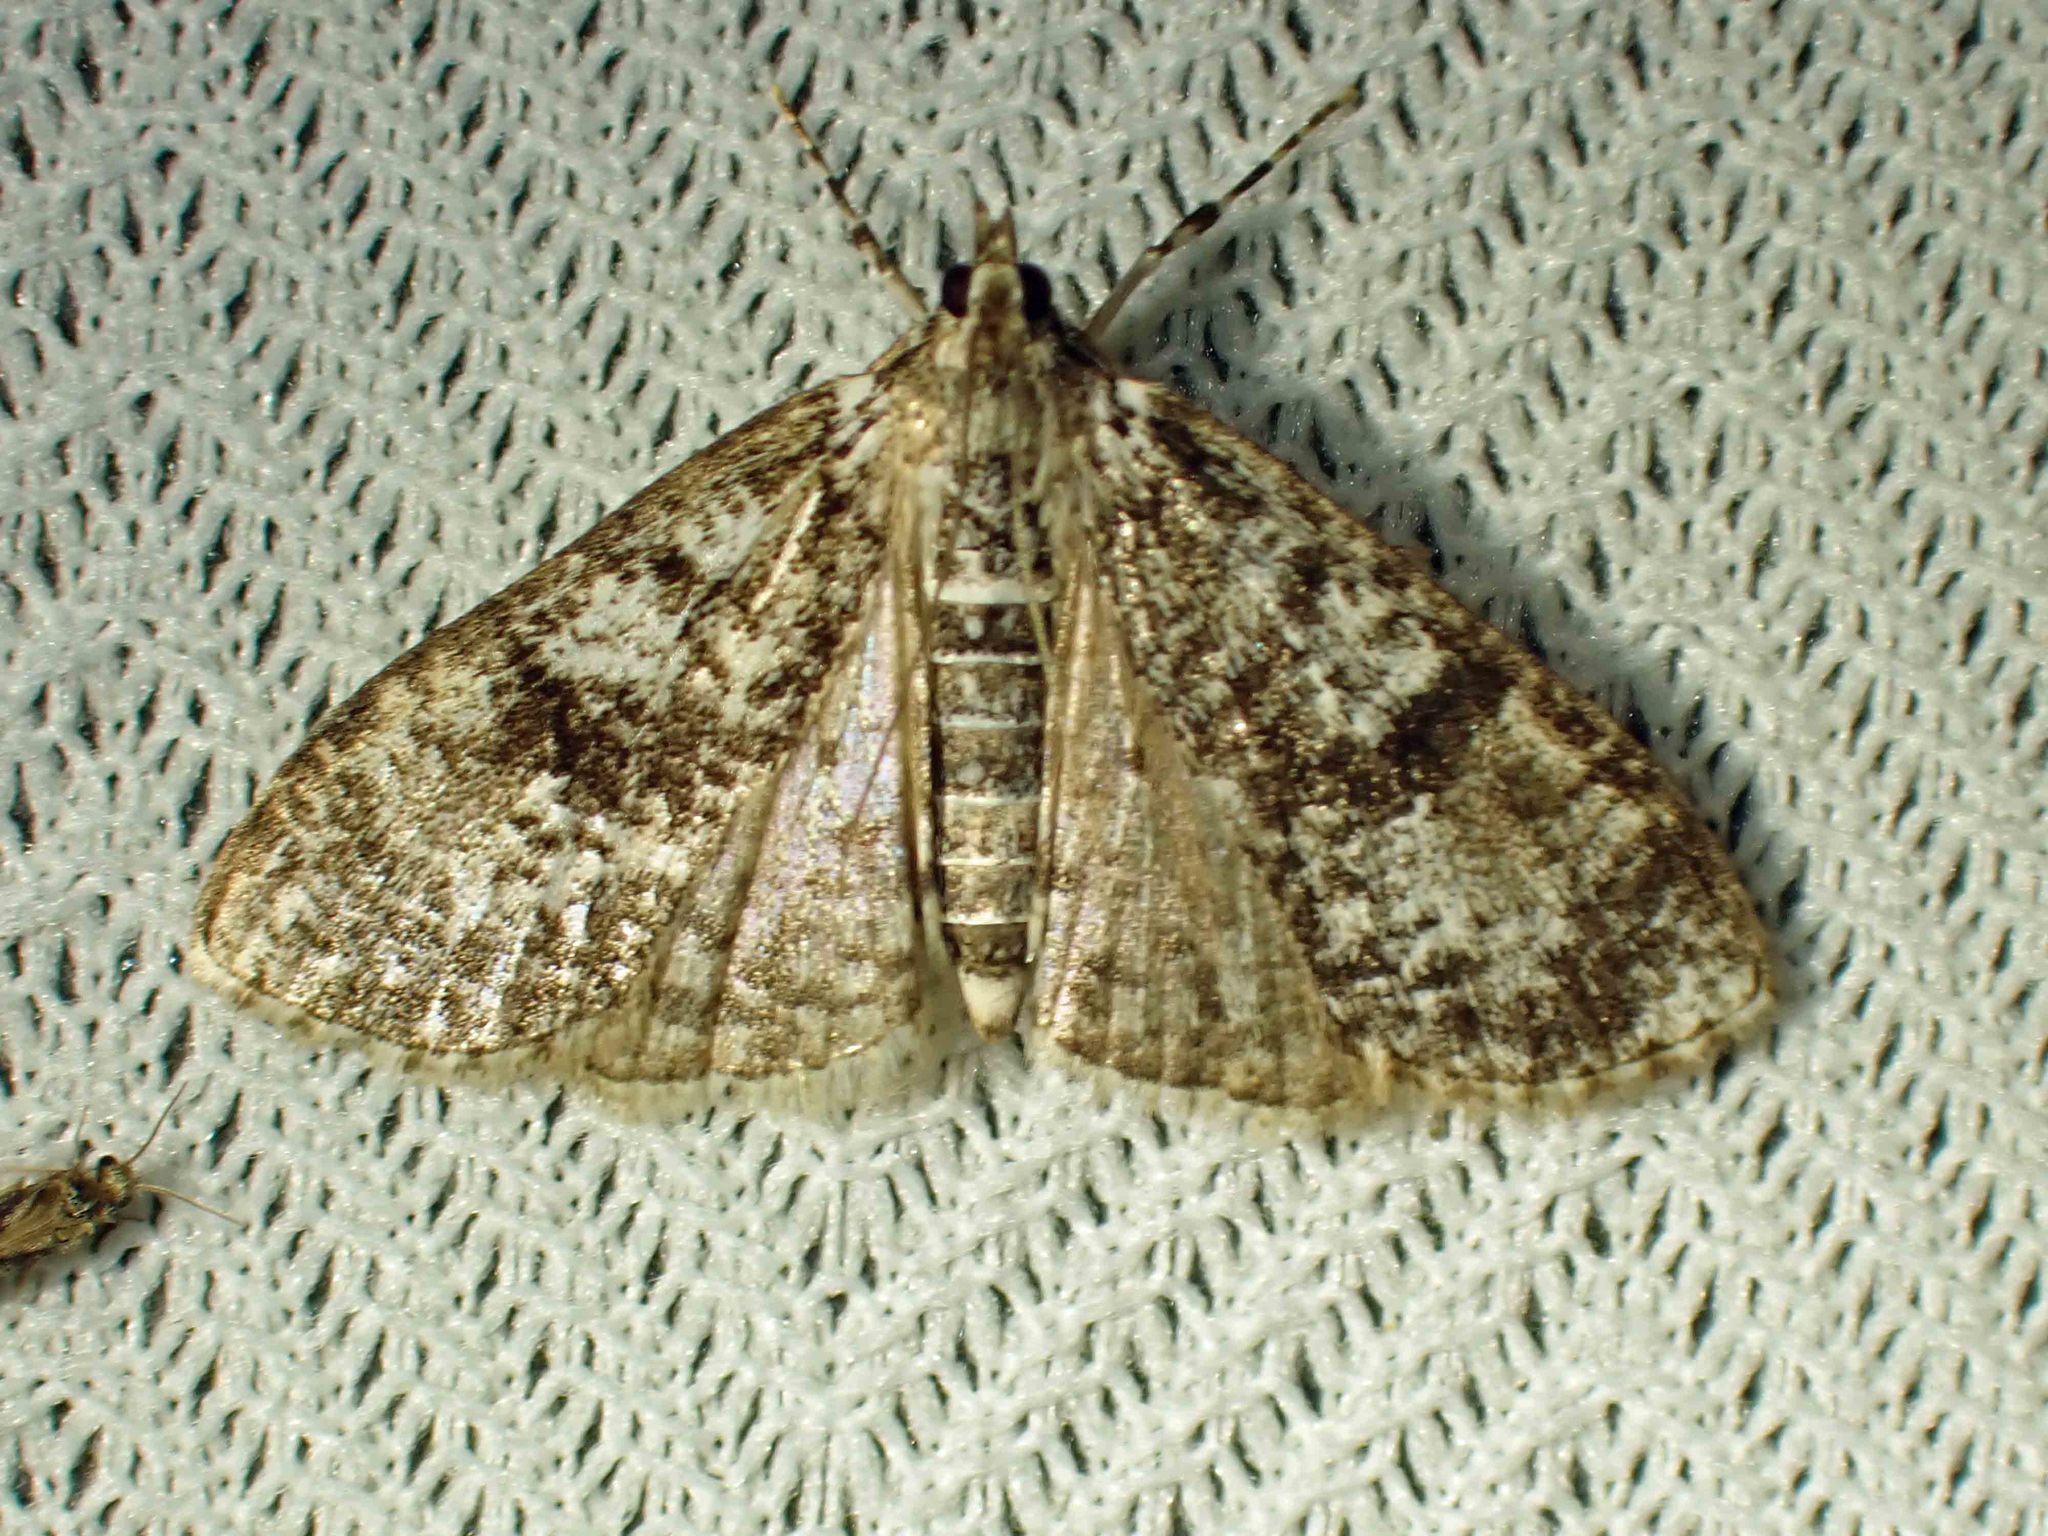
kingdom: Animalia
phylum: Arthropoda
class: Insecta
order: Lepidoptera
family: Crambidae
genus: Palpita
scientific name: Palpita magniferalis
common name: Splendid palpita moth
